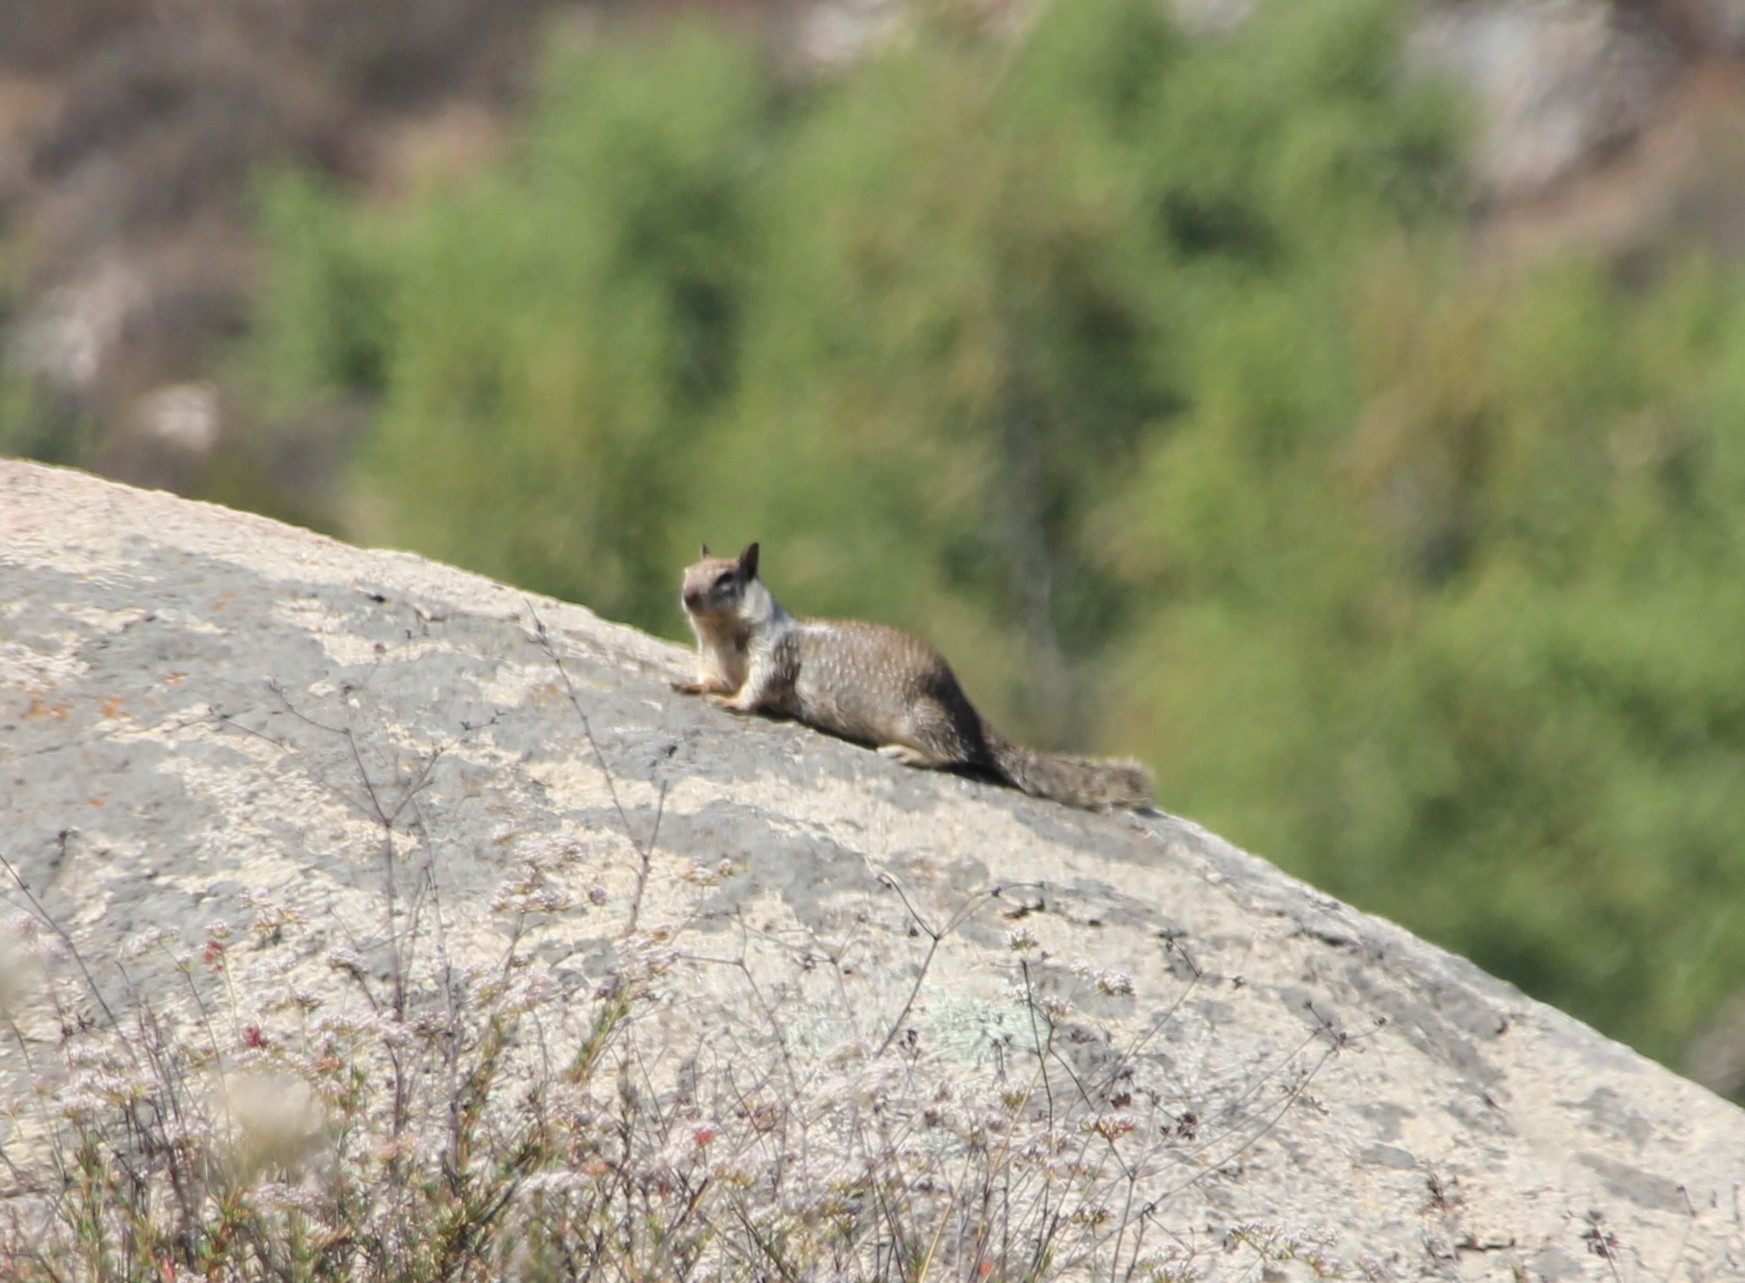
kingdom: Animalia
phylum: Chordata
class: Mammalia
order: Rodentia
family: Sciuridae
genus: Otospermophilus
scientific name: Otospermophilus beecheyi
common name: California ground squirrel
